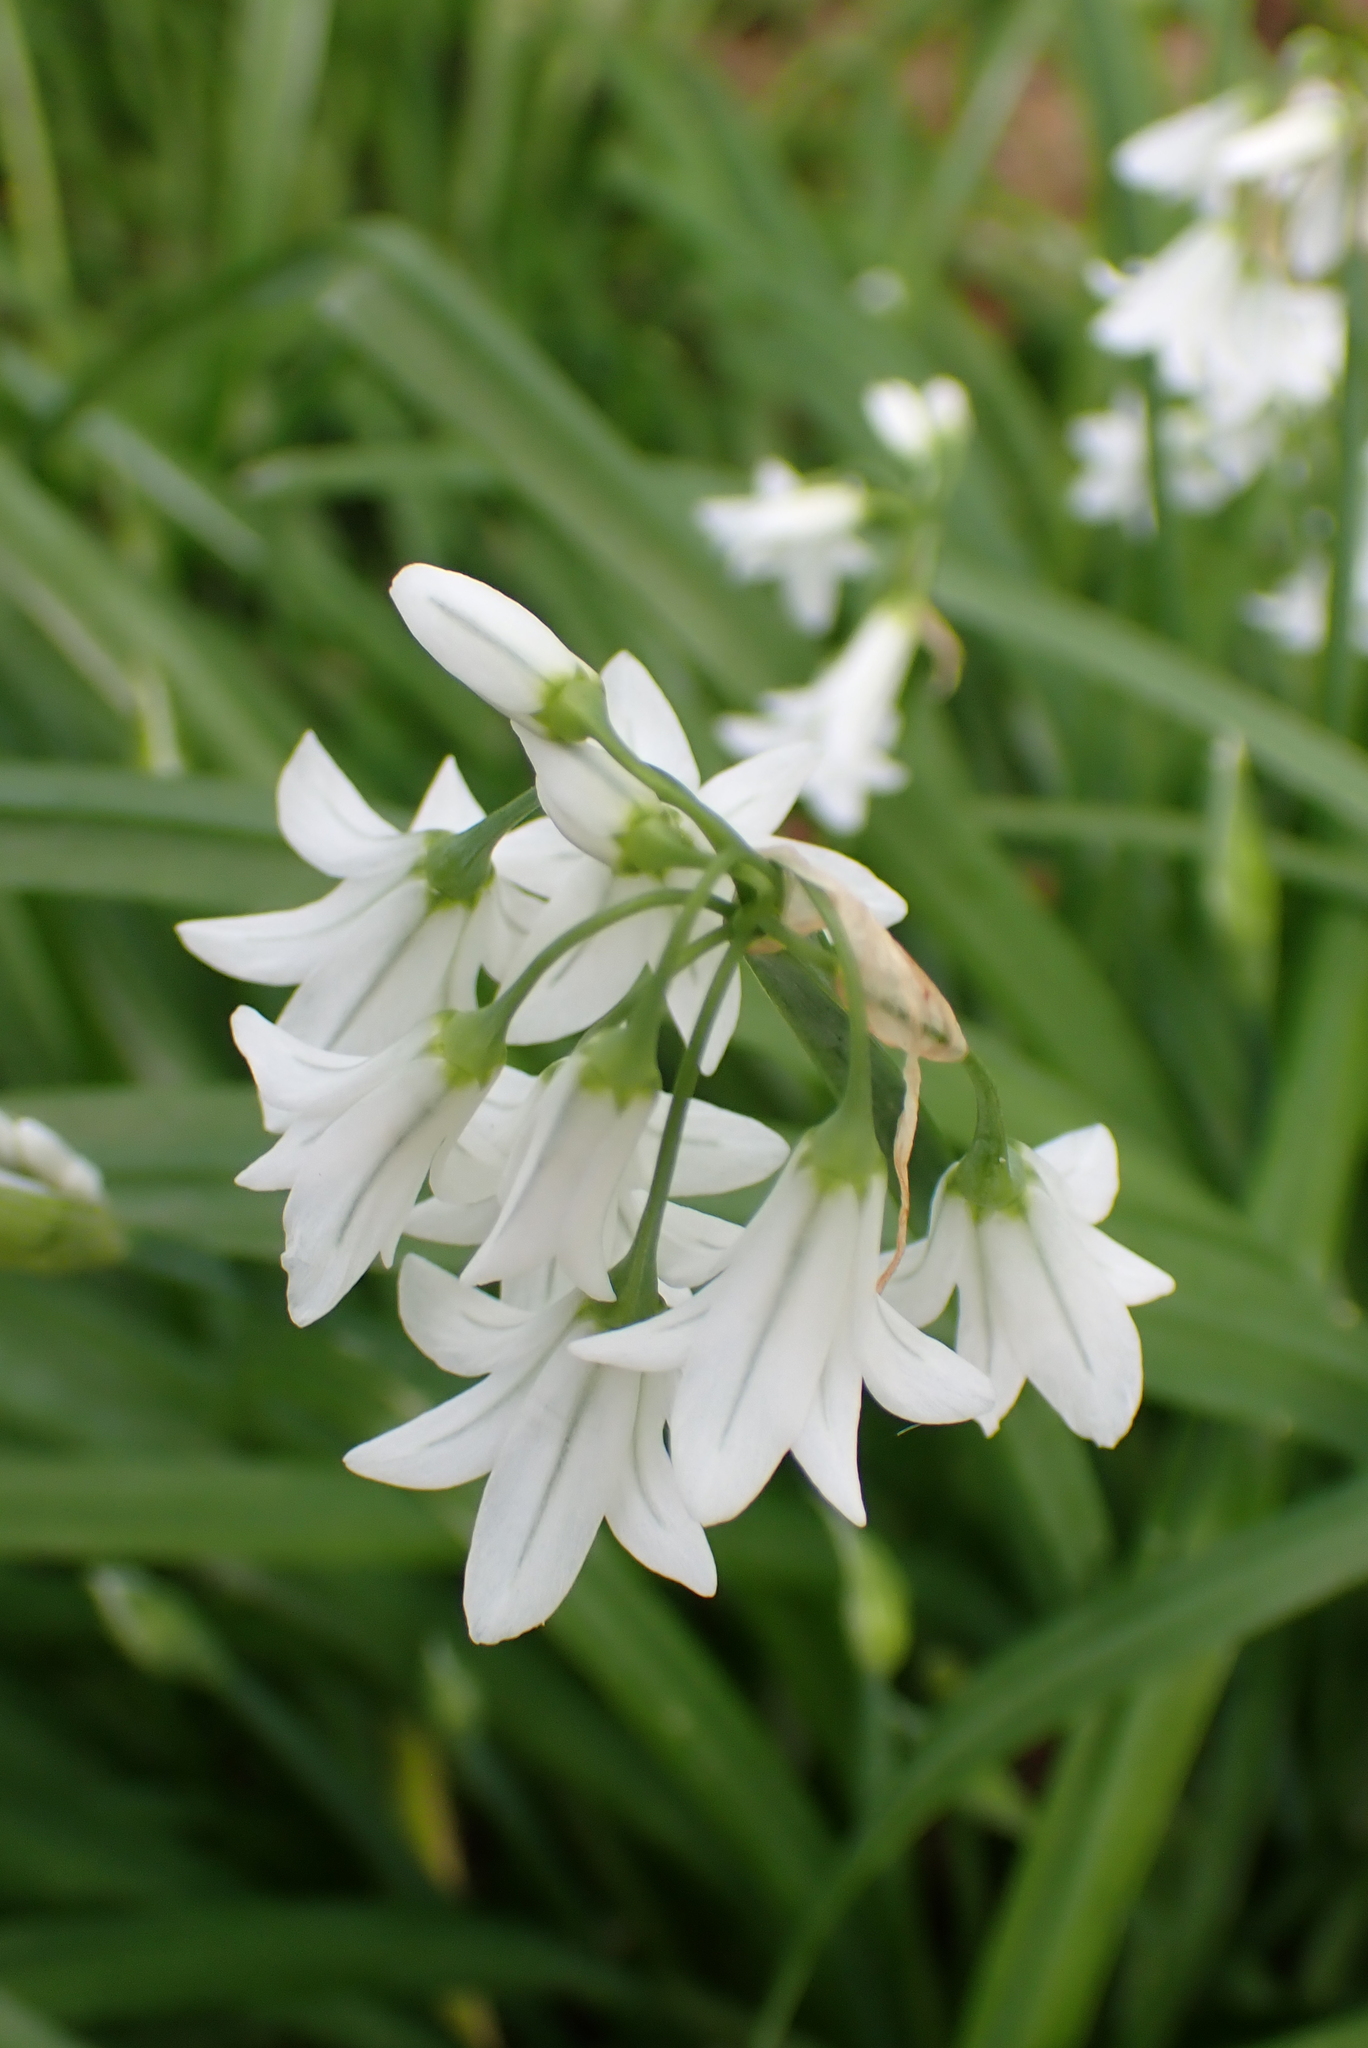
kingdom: Plantae
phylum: Tracheophyta
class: Liliopsida
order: Asparagales
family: Amaryllidaceae
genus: Allium
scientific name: Allium triquetrum
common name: Three-cornered garlic
